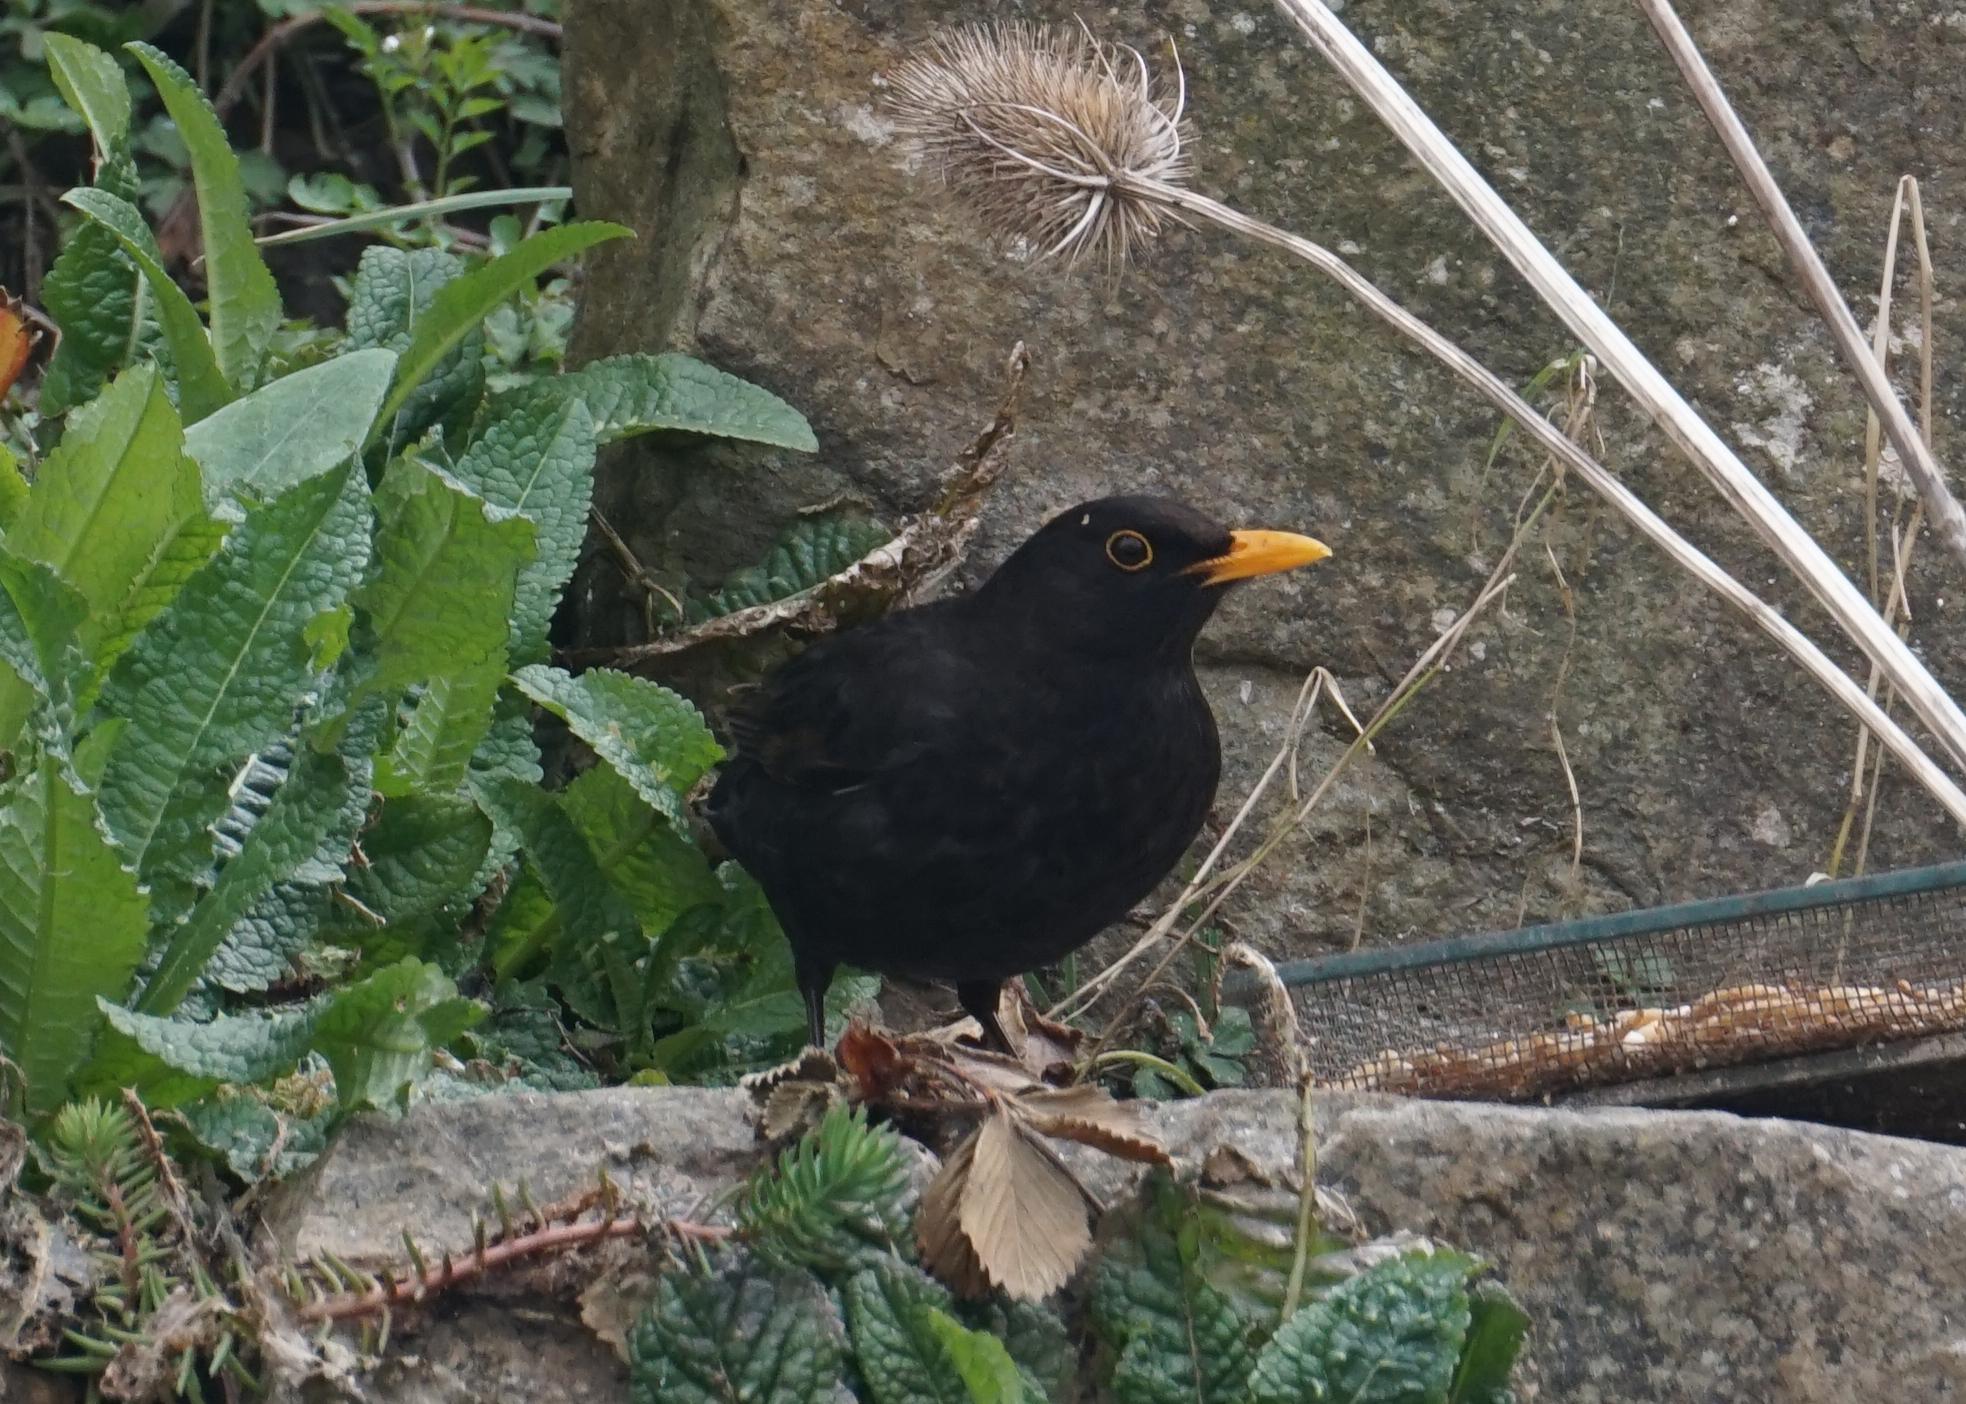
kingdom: Animalia
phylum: Chordata
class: Aves
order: Passeriformes
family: Turdidae
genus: Turdus
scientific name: Turdus merula
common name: Common blackbird
